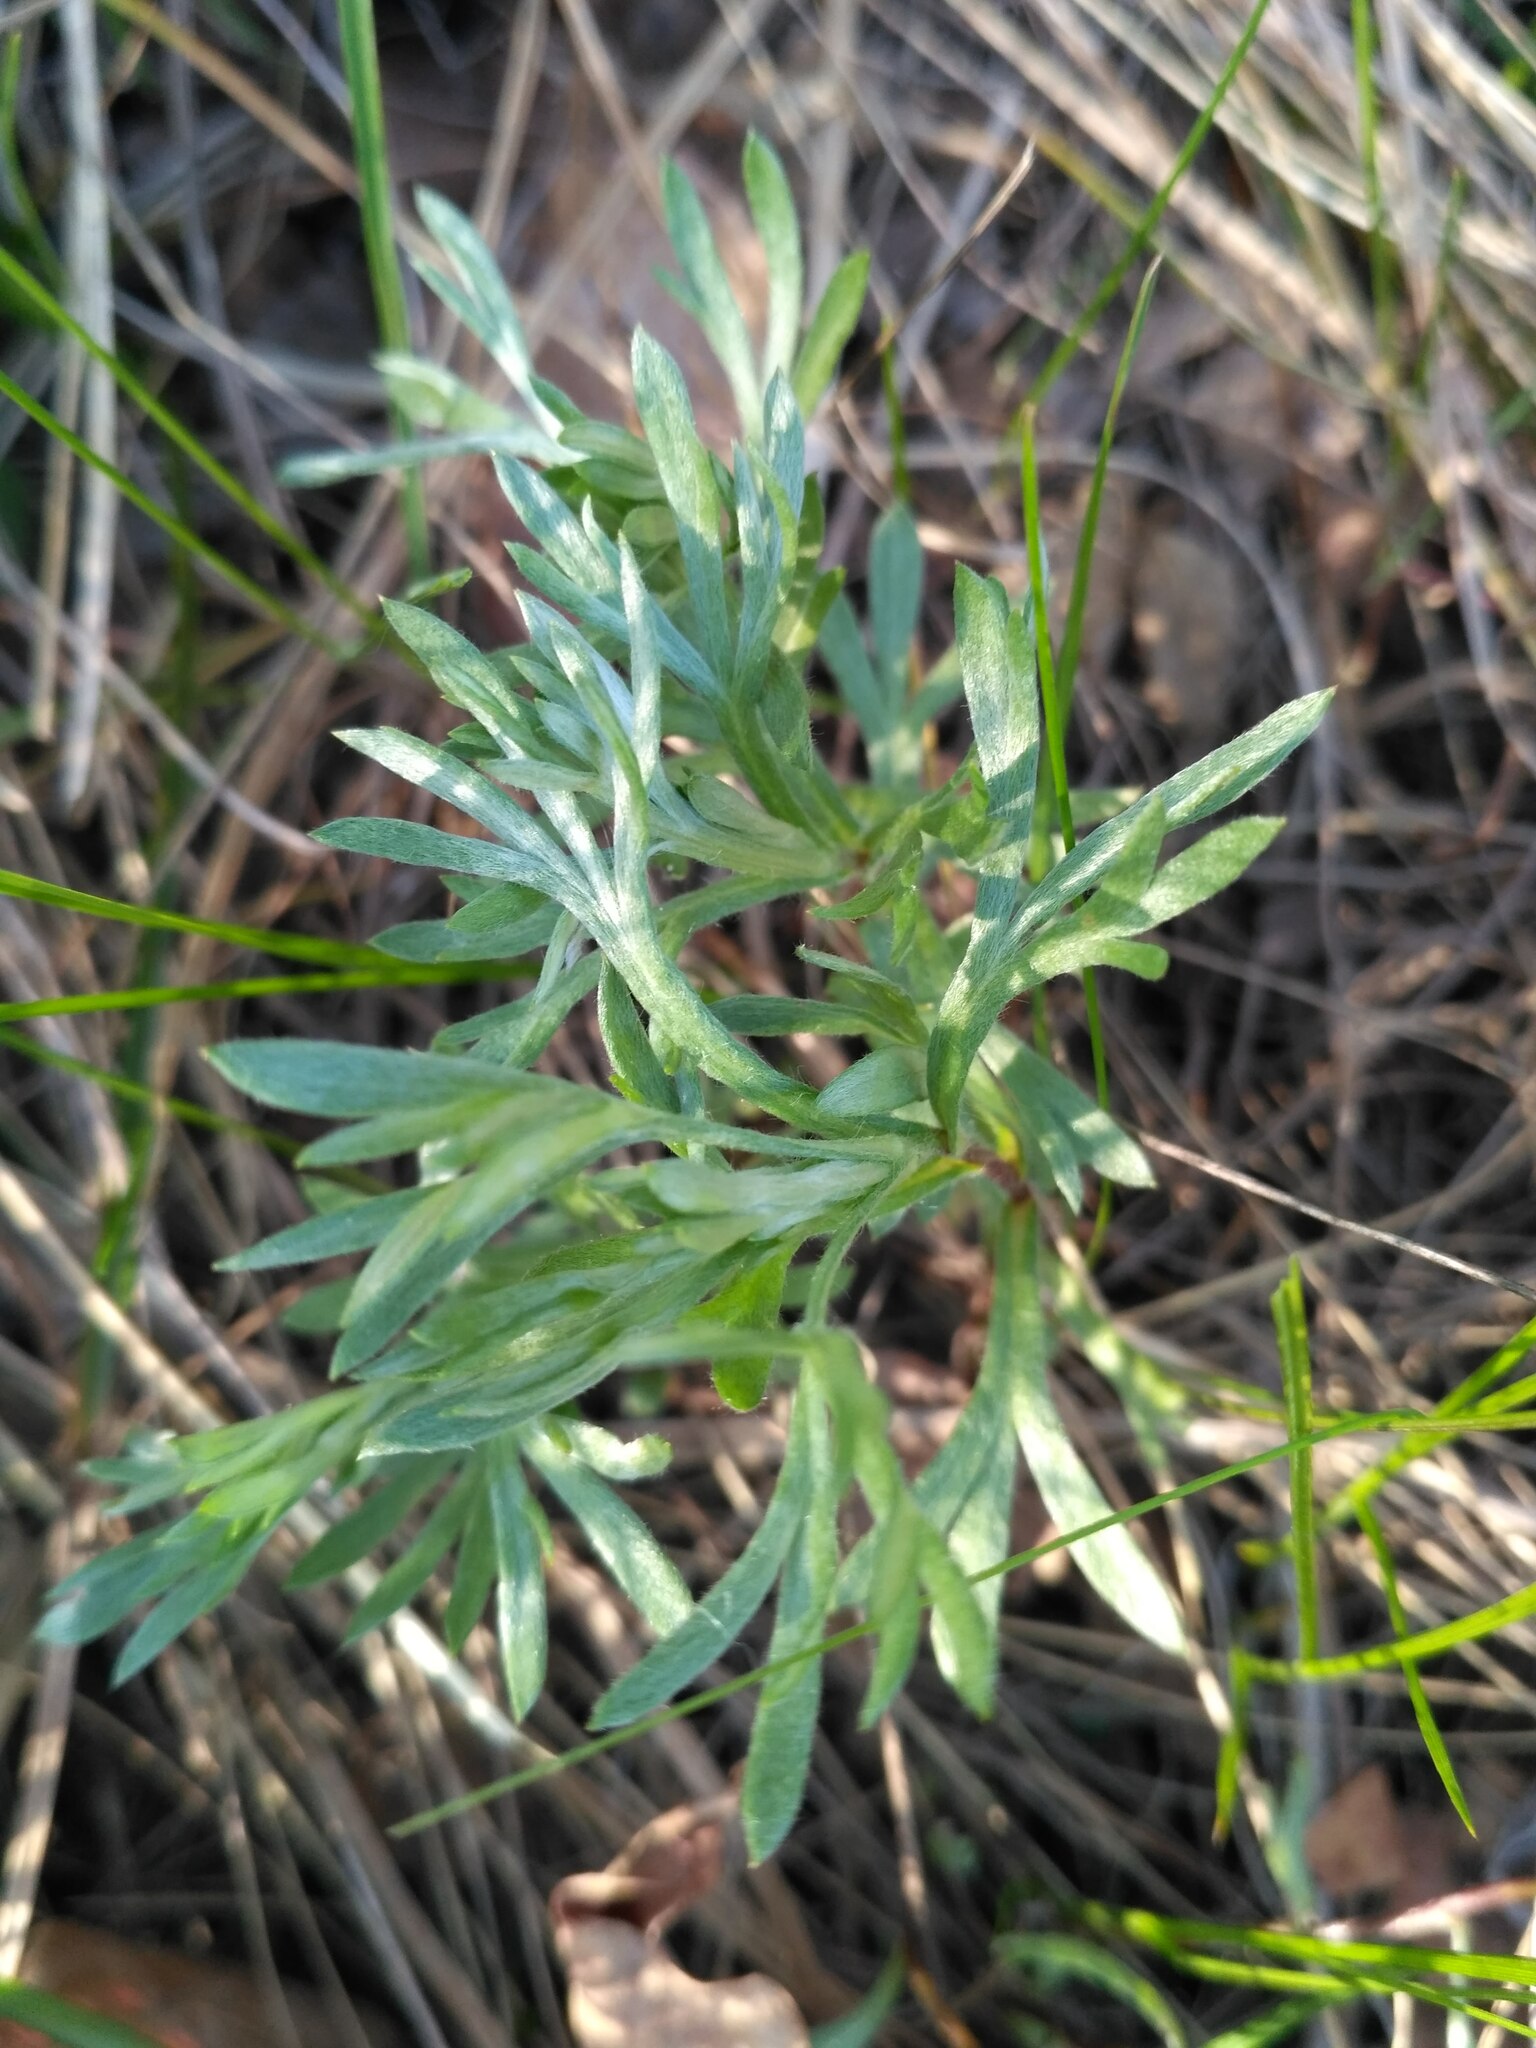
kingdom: Plantae
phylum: Tracheophyta
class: Magnoliopsida
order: Asterales
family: Asteraceae
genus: Artemisia
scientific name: Artemisia sericea
